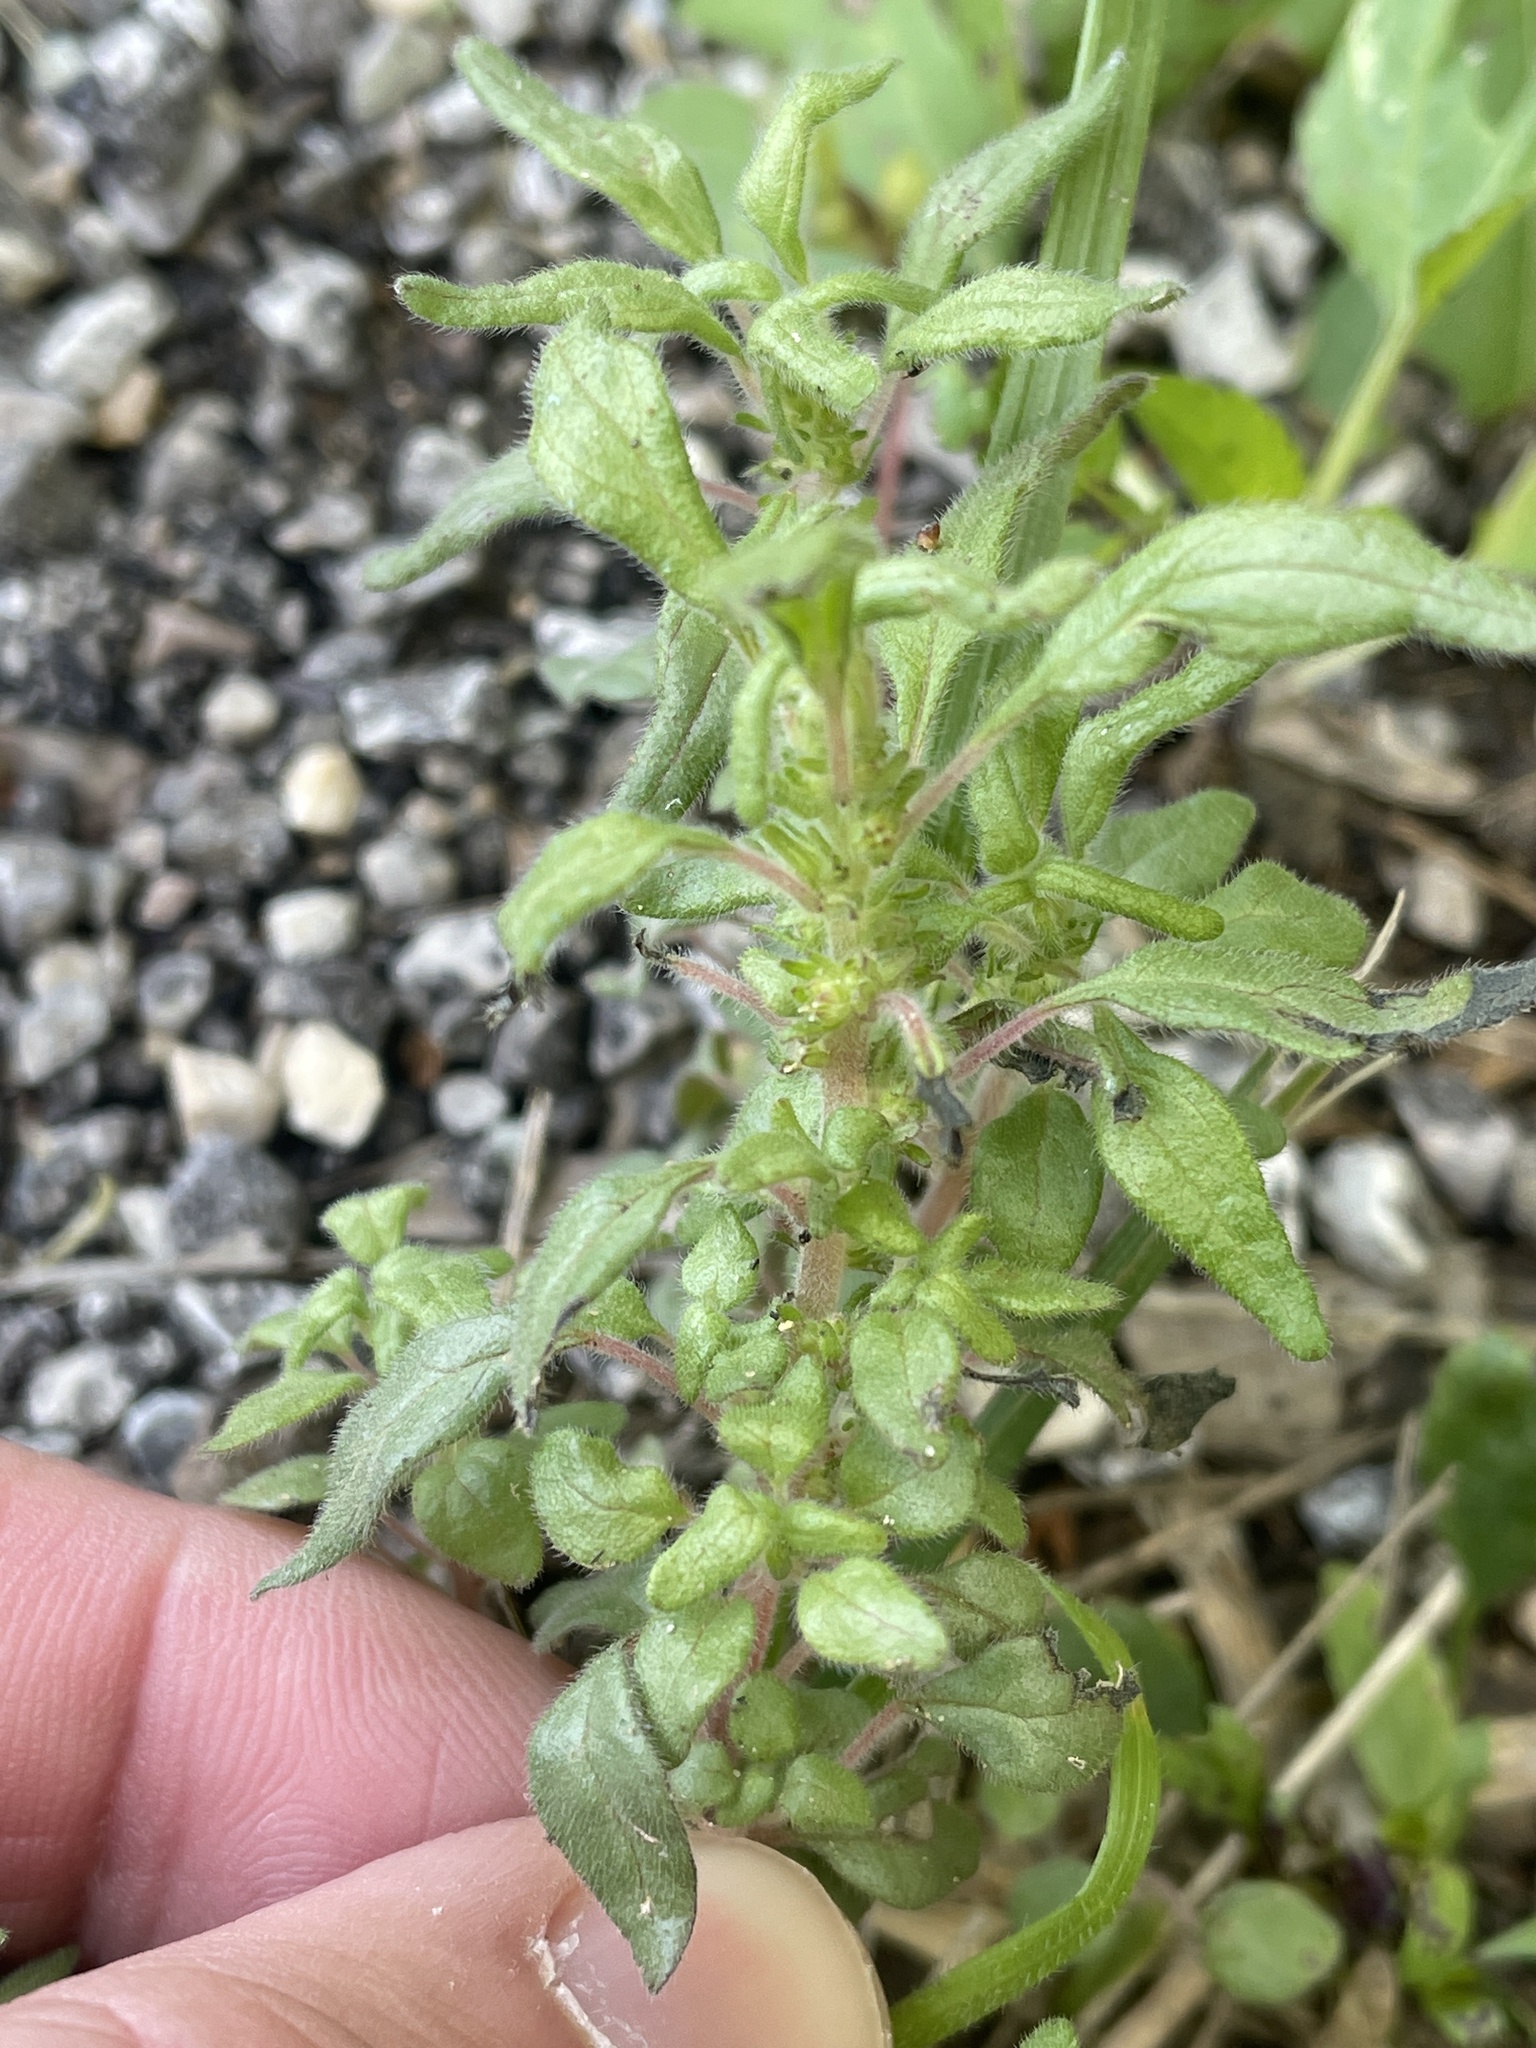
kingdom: Plantae
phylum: Tracheophyta
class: Magnoliopsida
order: Rosales
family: Urticaceae
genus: Parietaria
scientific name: Parietaria pensylvanica
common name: Pennsylvania pellitory
